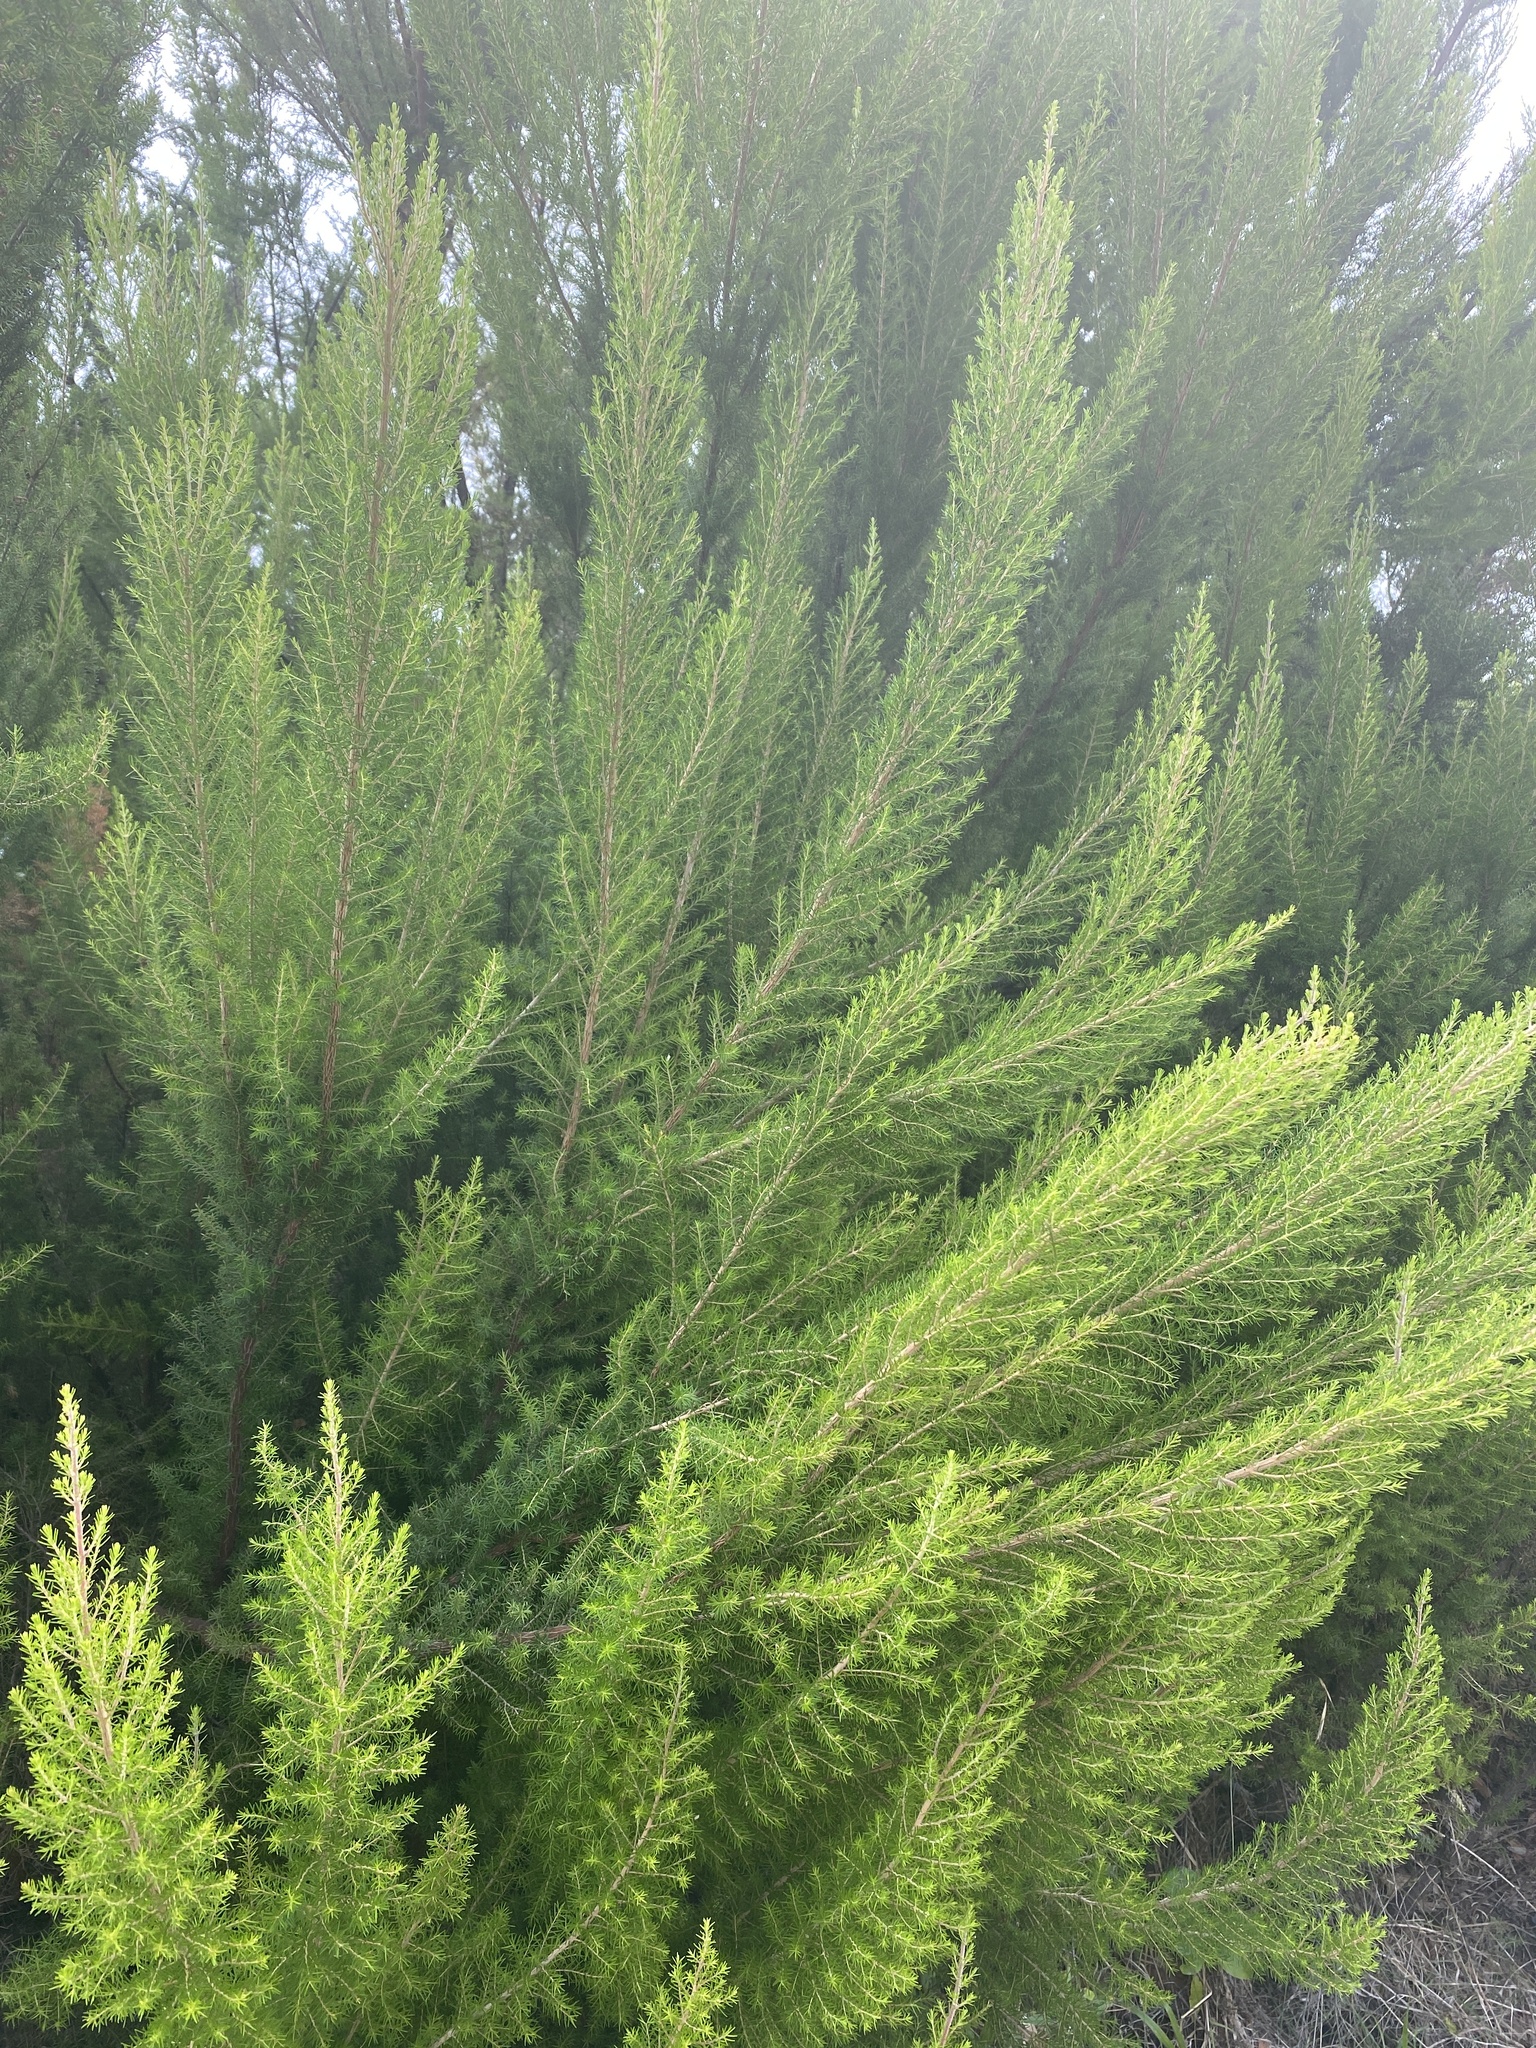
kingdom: Plantae
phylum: Tracheophyta
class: Magnoliopsida
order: Ericales
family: Ericaceae
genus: Erica
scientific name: Erica canariensis
